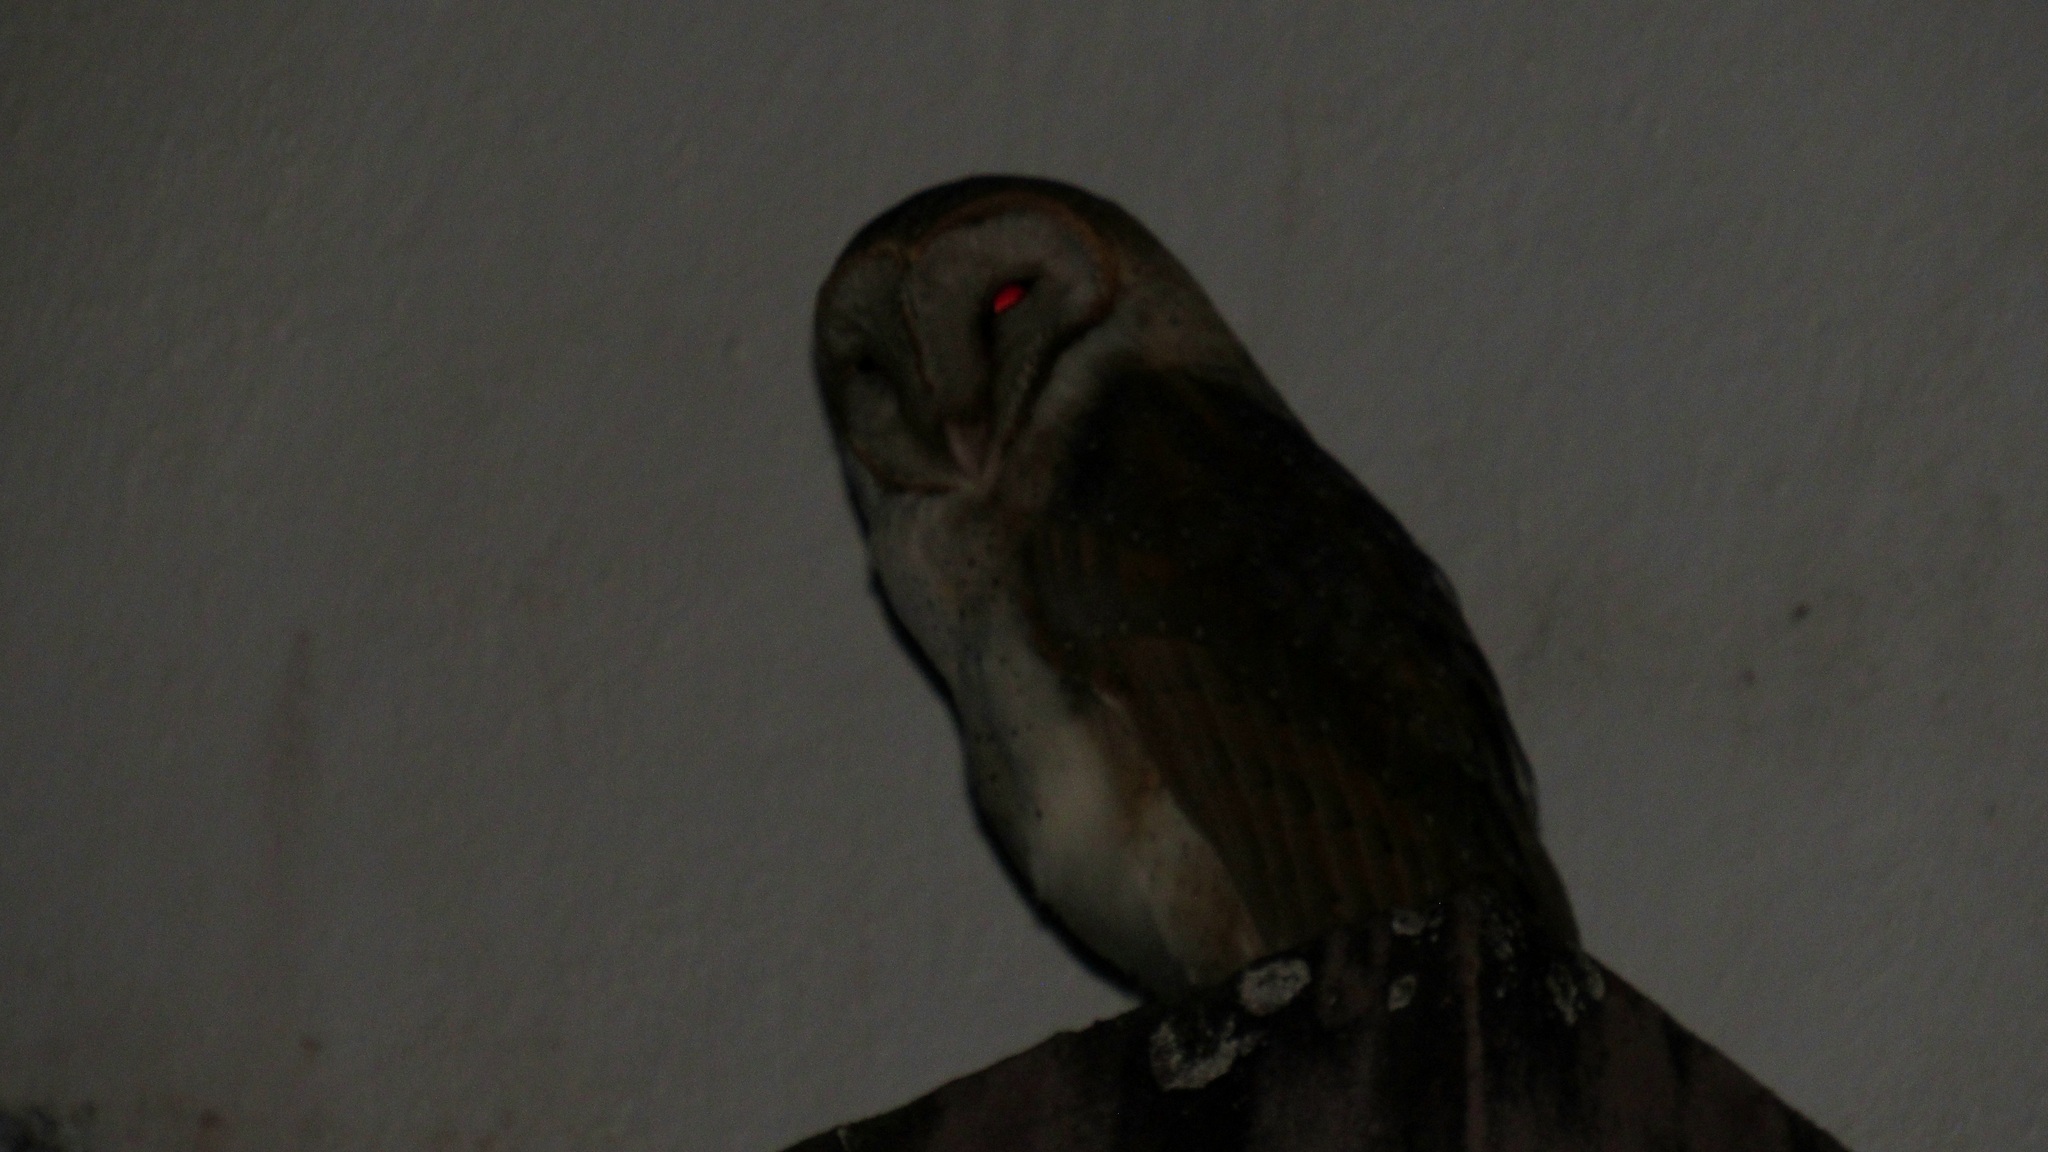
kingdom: Animalia
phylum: Chordata
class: Aves
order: Strigiformes
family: Tytonidae
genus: Tyto
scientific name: Tyto alba
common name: Barn owl
